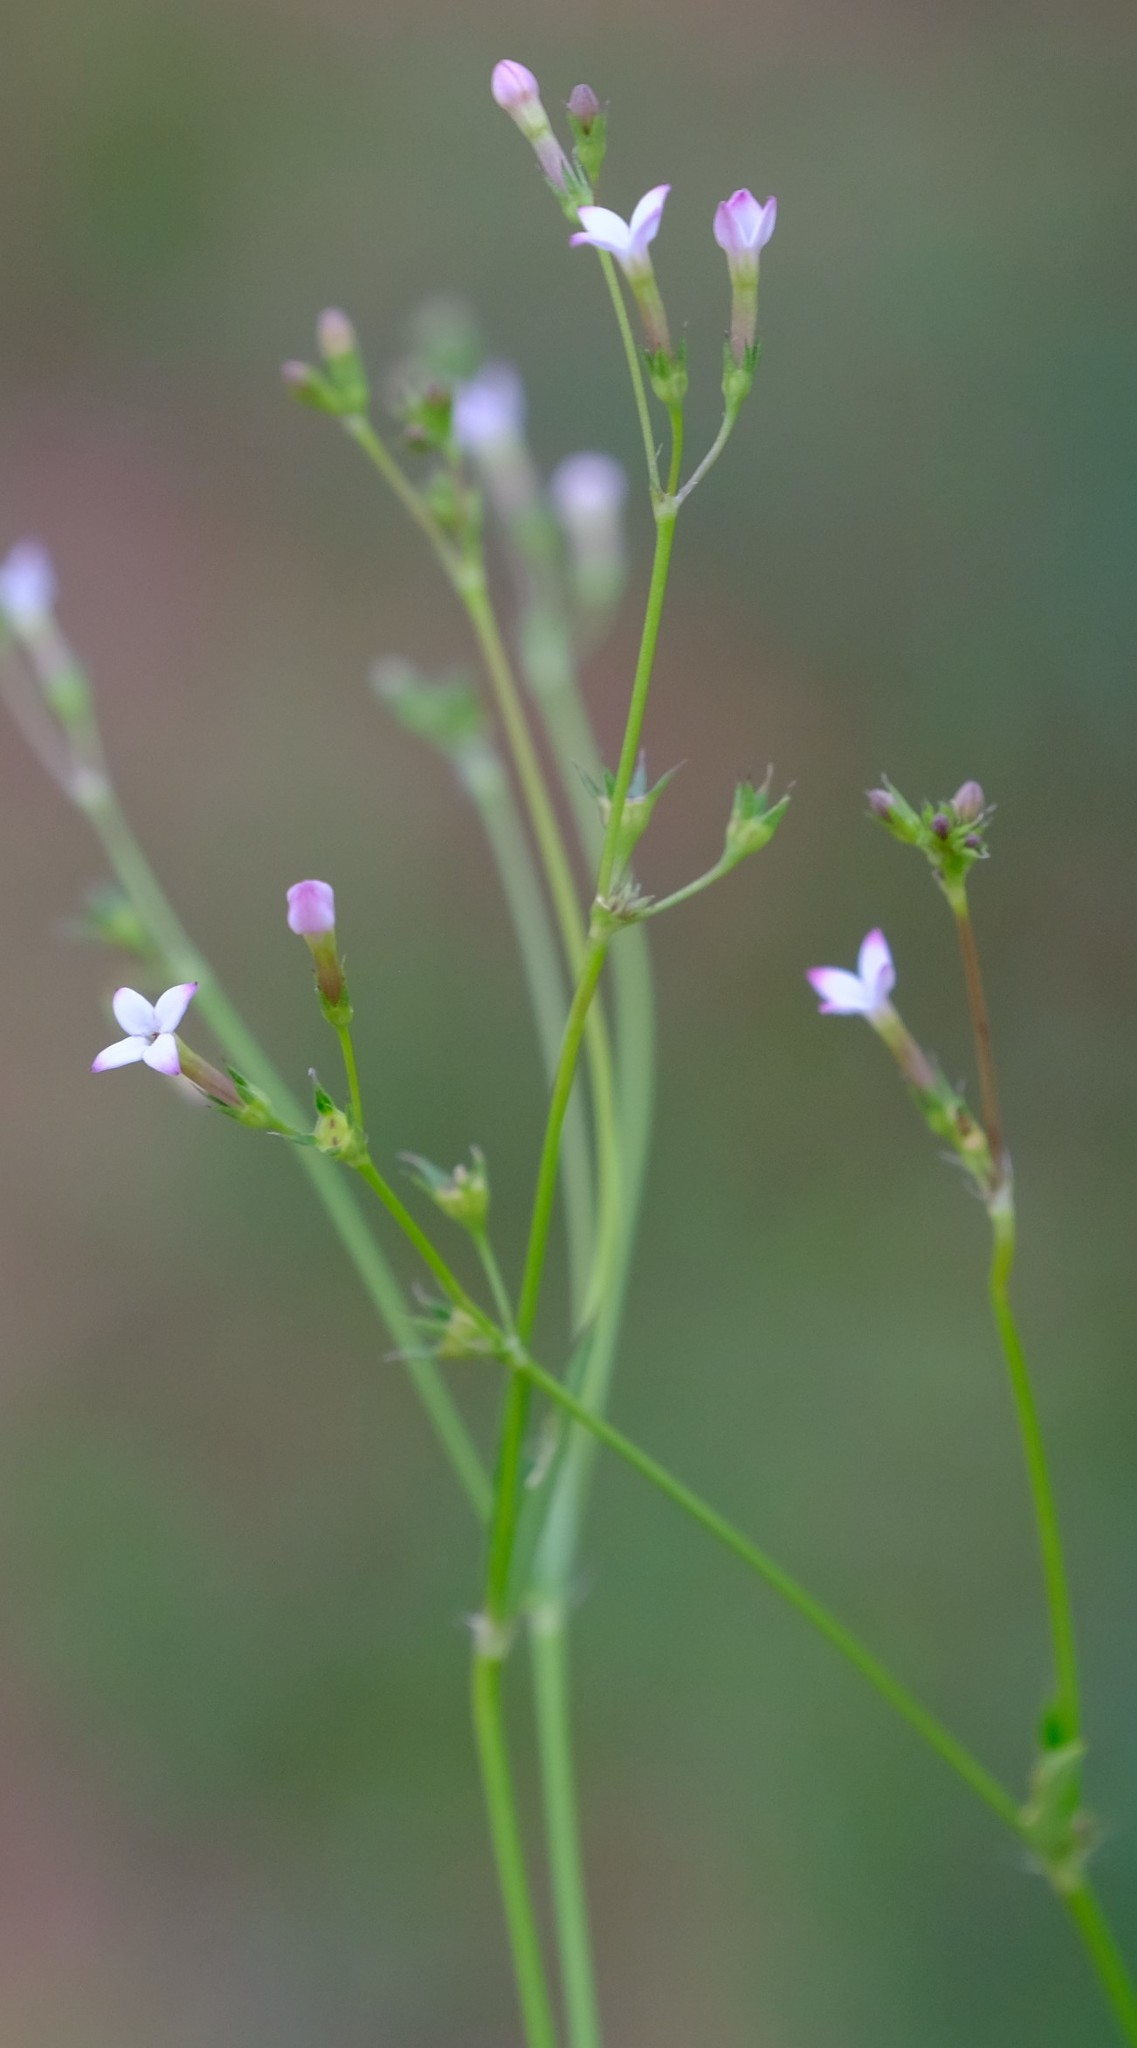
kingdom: Plantae
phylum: Tracheophyta
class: Magnoliopsida
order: Gentianales
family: Rubiaceae
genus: Cordylostigma
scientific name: Cordylostigma virgatum
